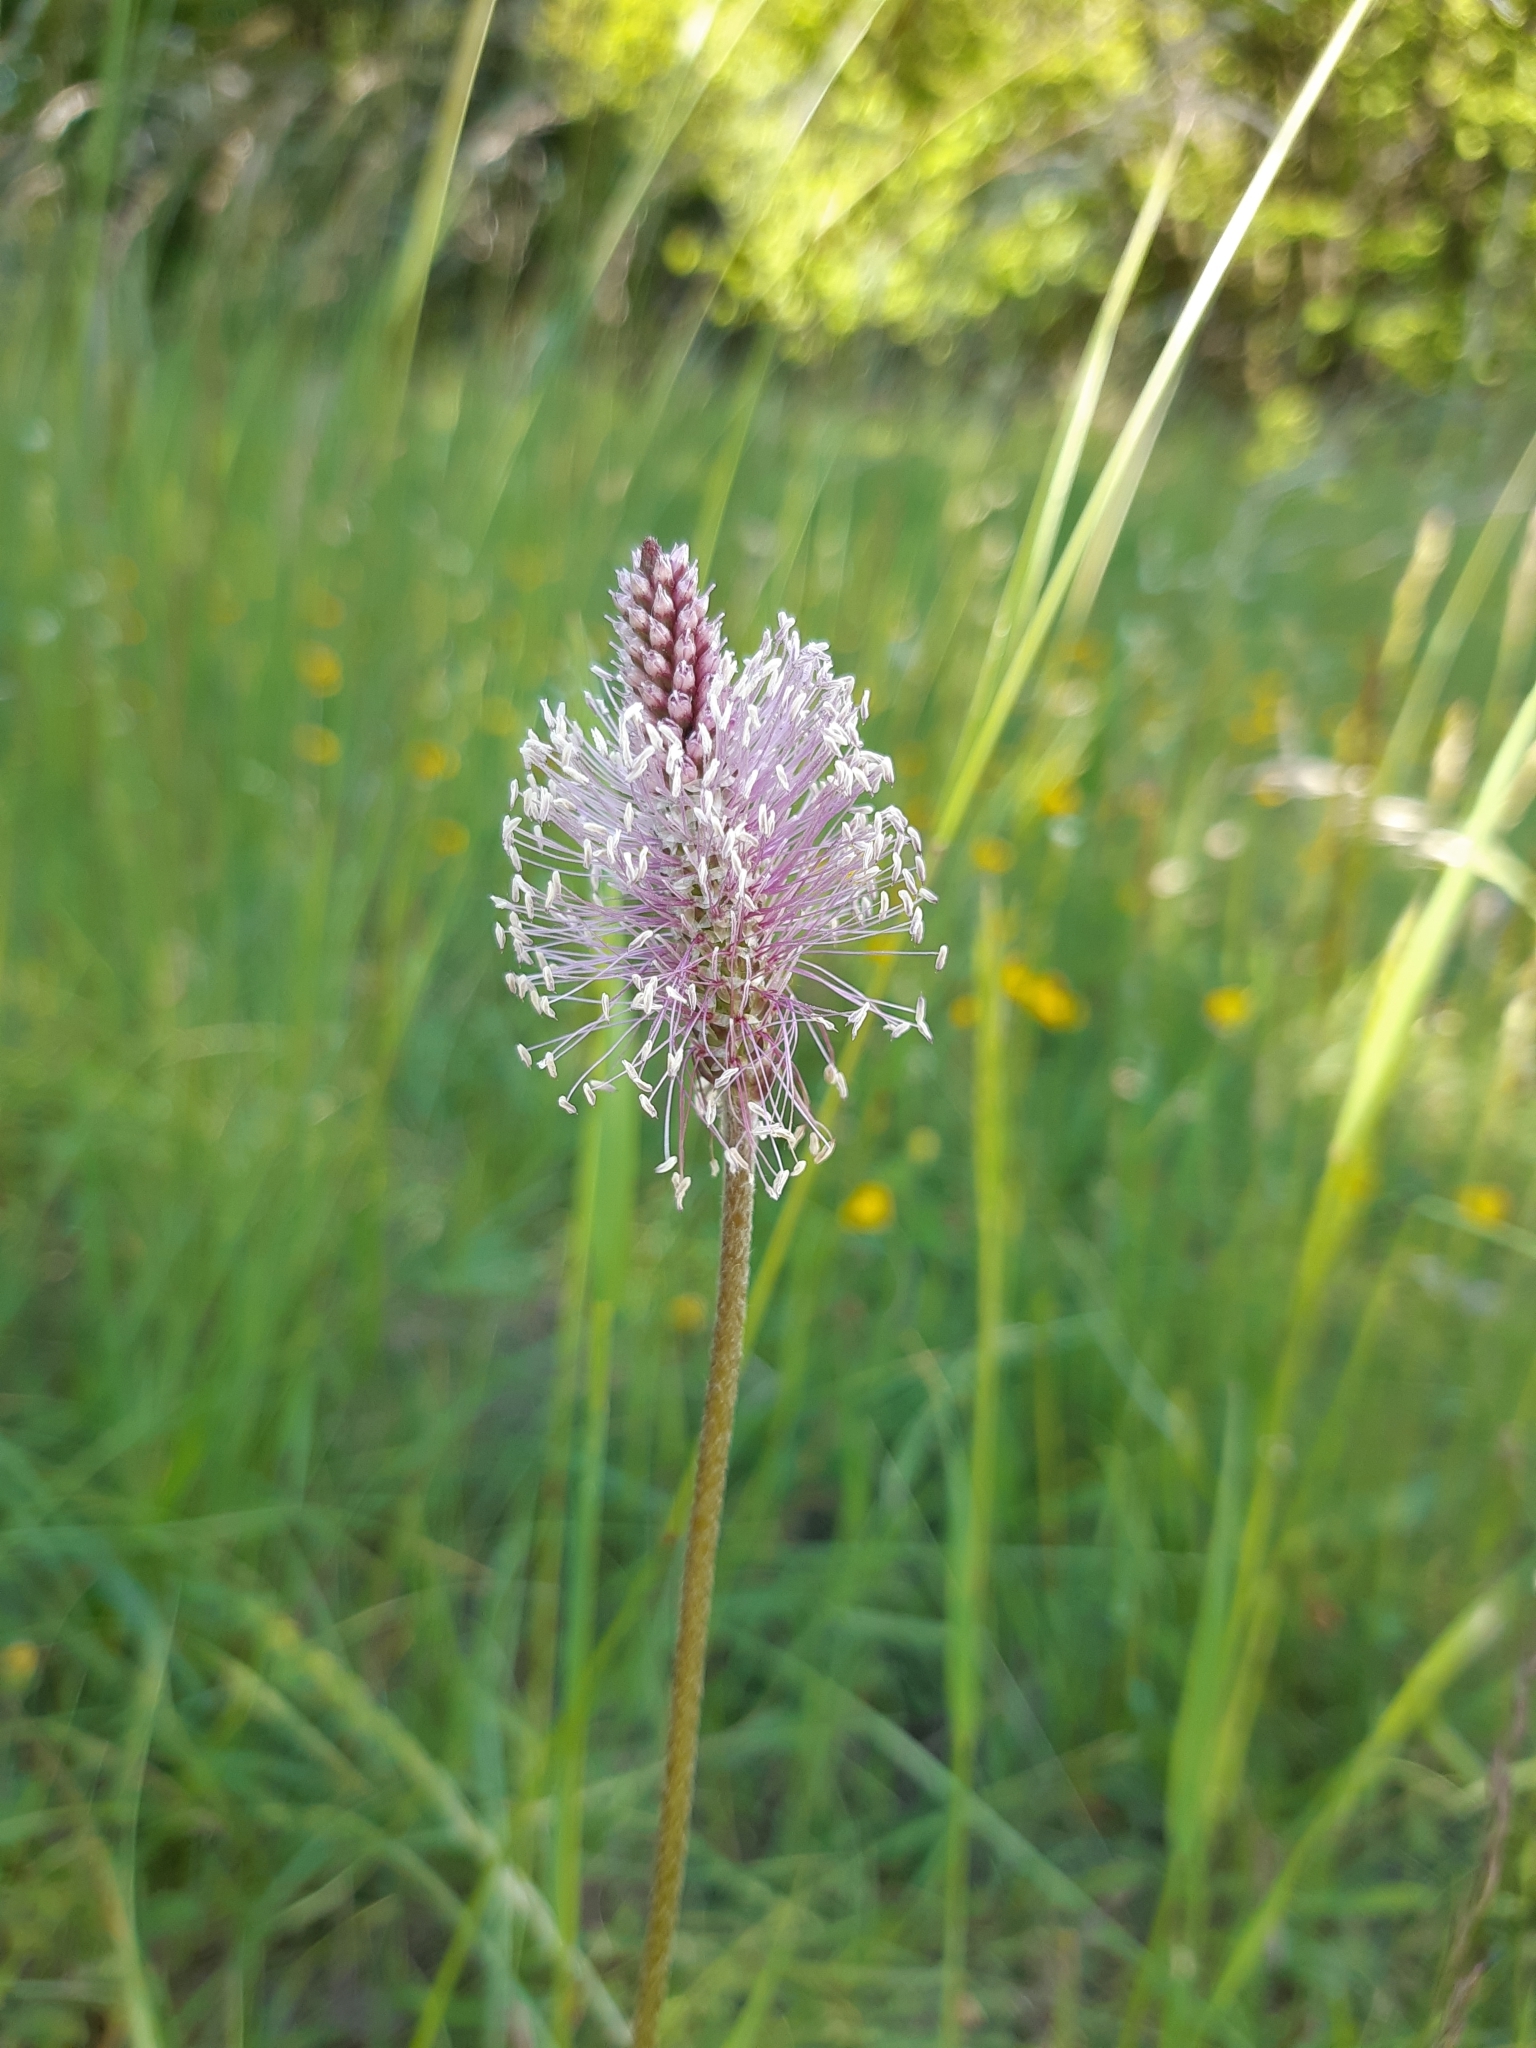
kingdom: Plantae
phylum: Tracheophyta
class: Magnoliopsida
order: Lamiales
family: Plantaginaceae
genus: Plantago
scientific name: Plantago media
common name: Hoary plantain
